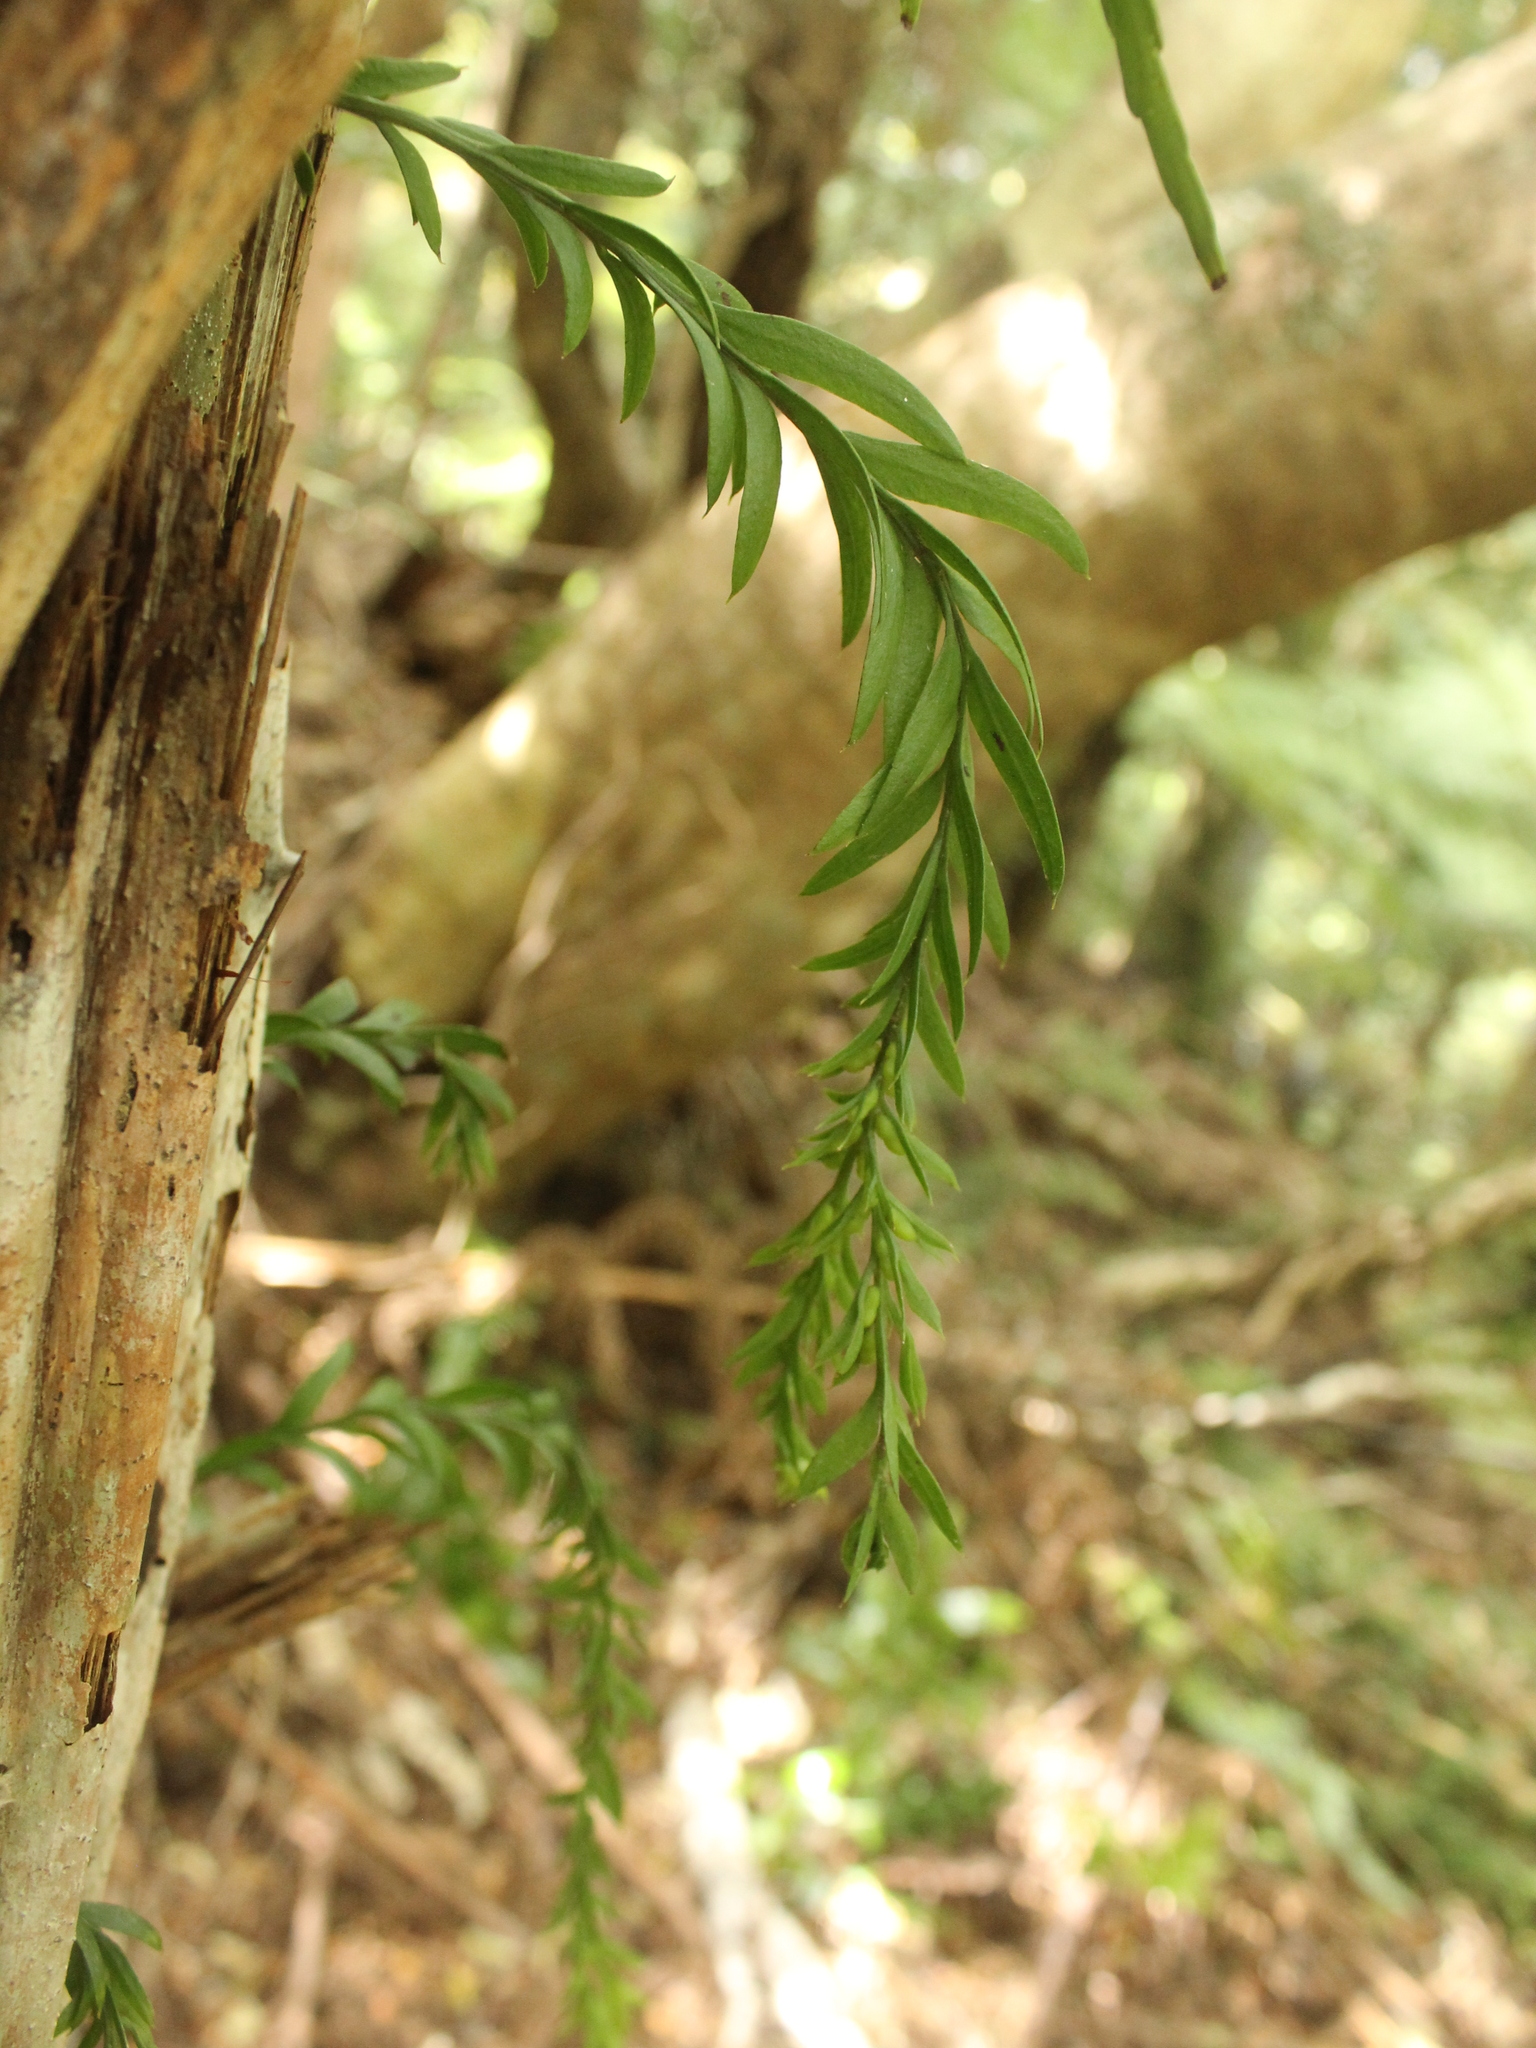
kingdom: Plantae
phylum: Tracheophyta
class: Polypodiopsida
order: Psilotales
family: Psilotaceae
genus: Tmesipteris
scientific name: Tmesipteris elongata
